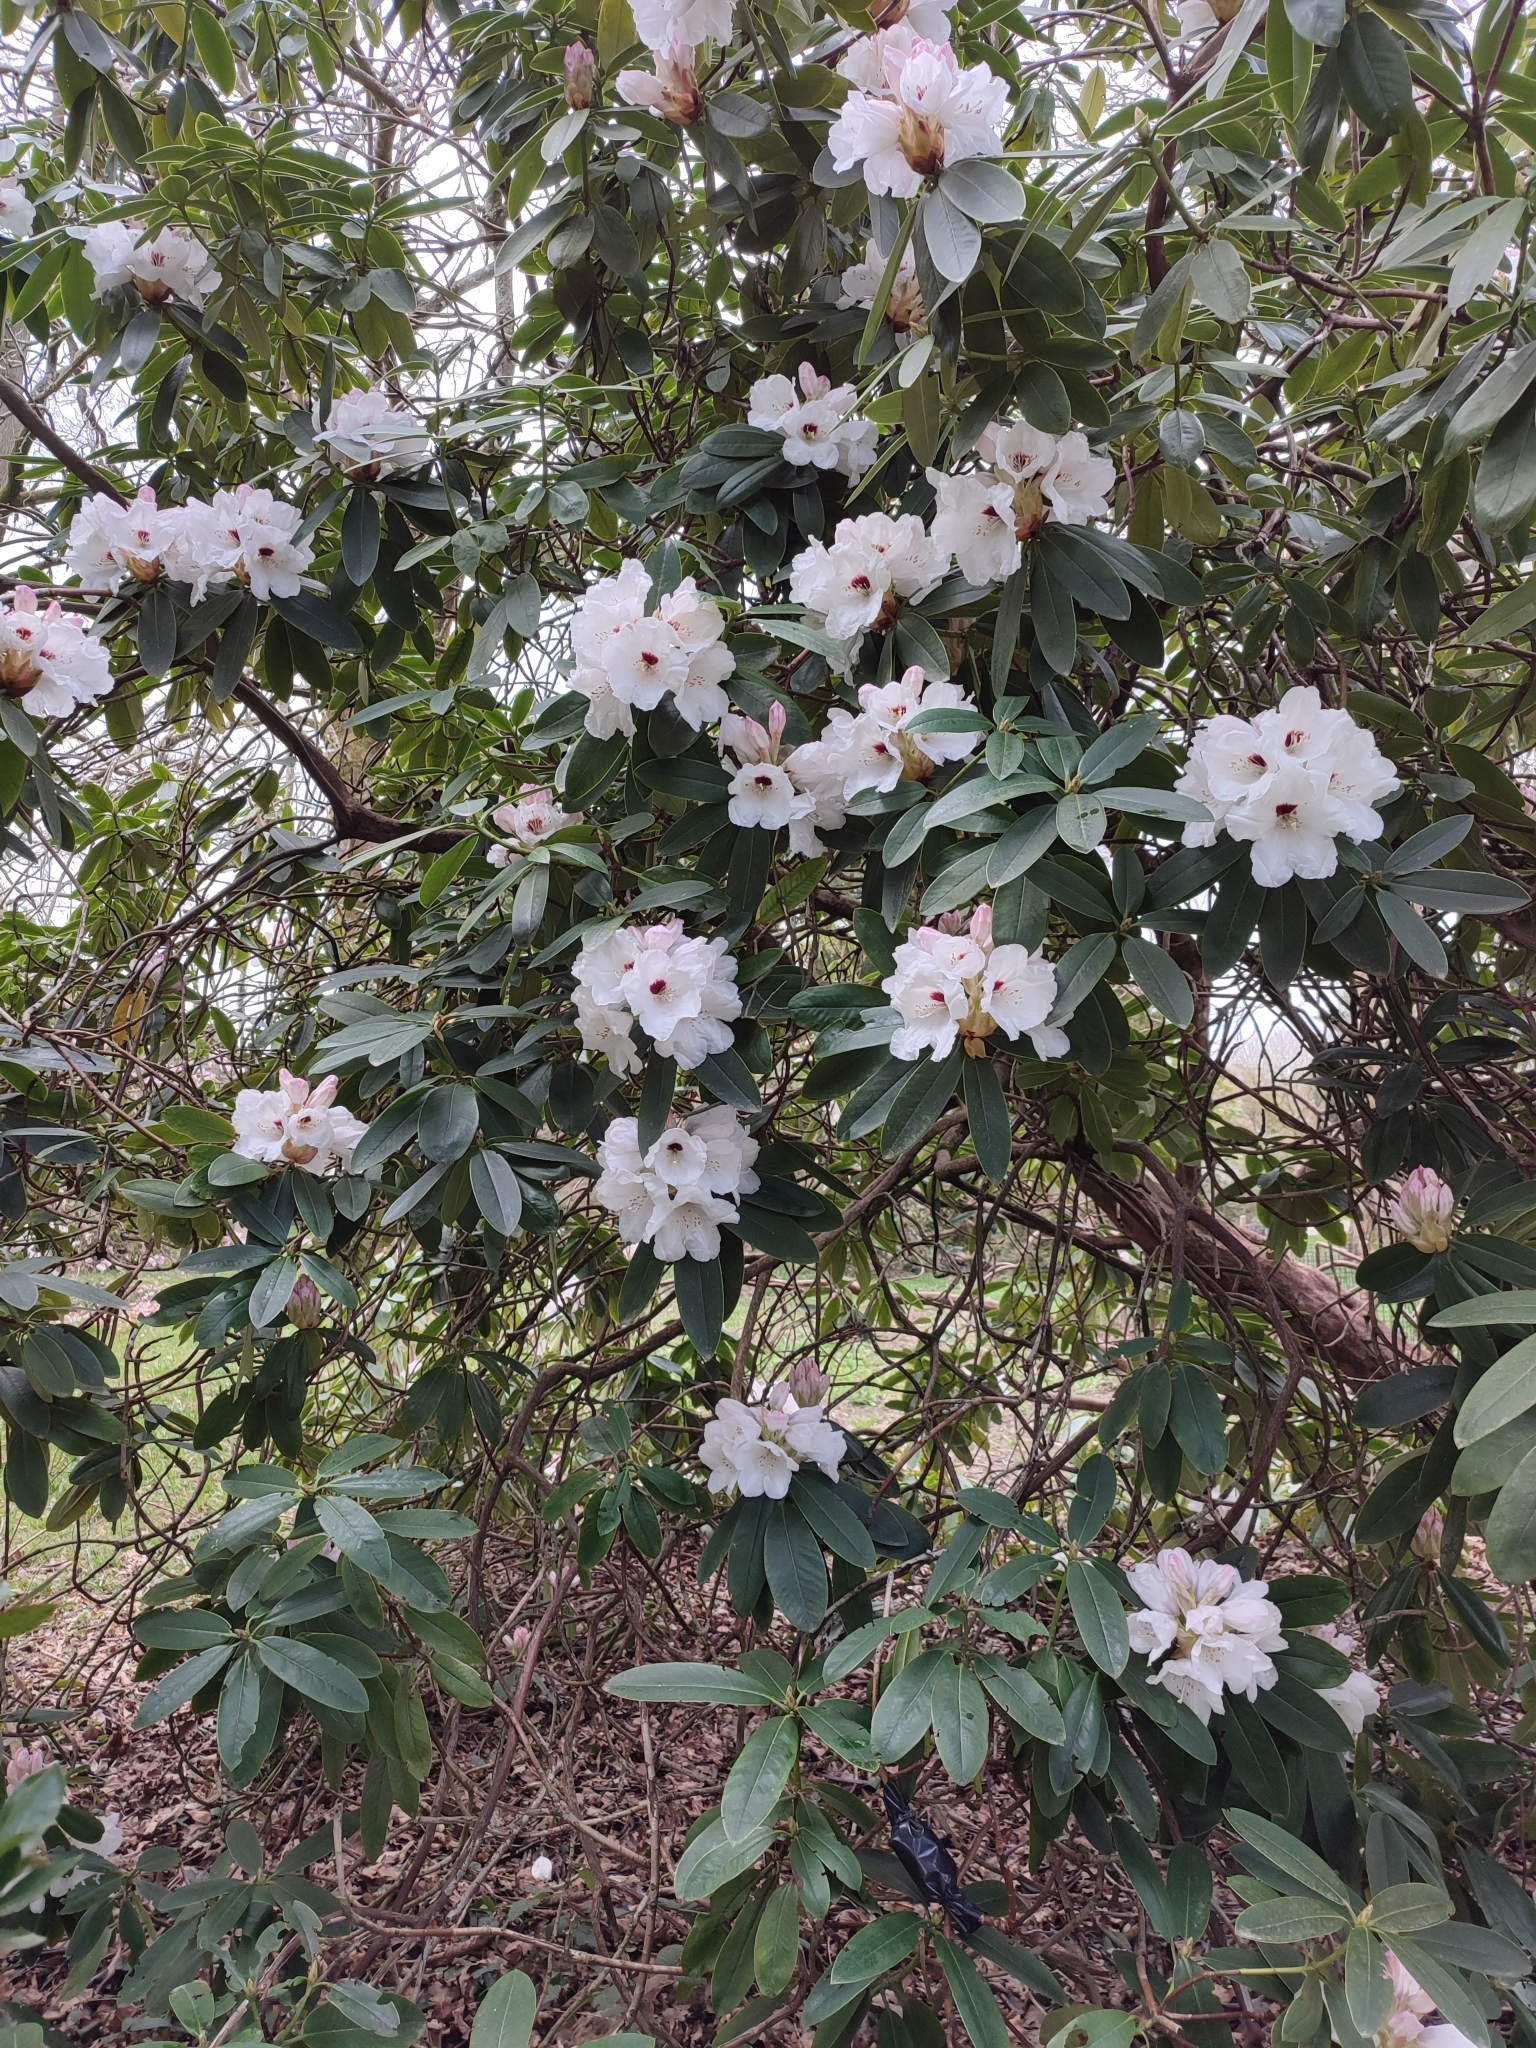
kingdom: Animalia
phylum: Arthropoda
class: Insecta
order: Hymenoptera
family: Apidae
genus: Bombus
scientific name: Bombus terrestris
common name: Buff-tailed bumblebee
